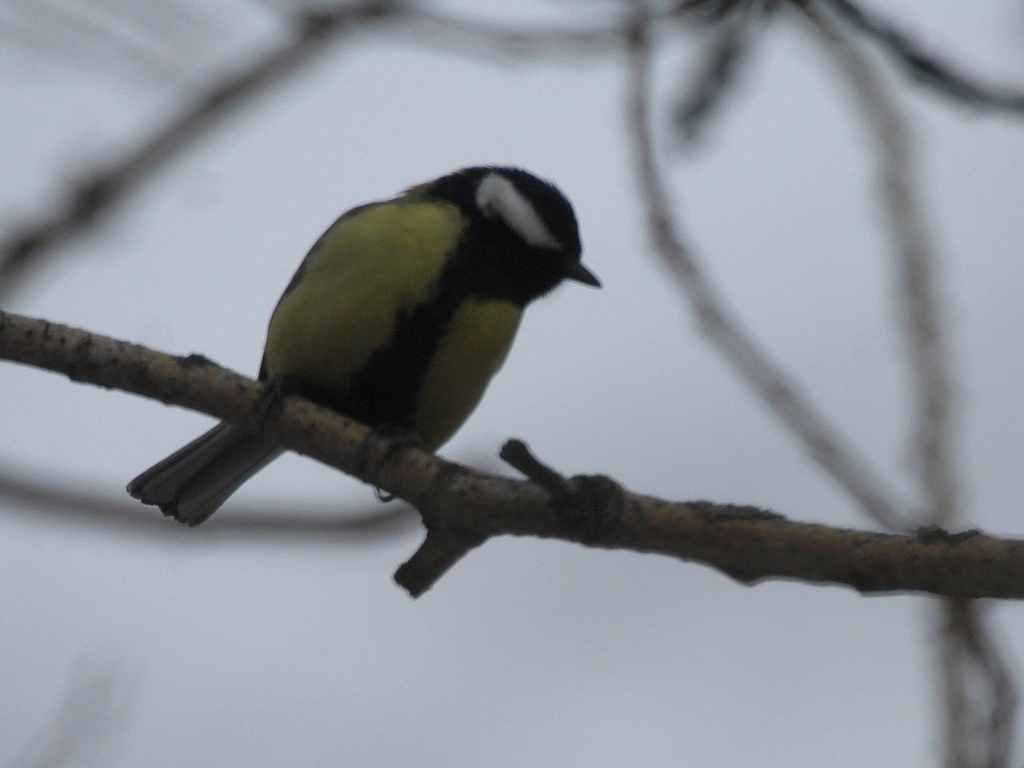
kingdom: Animalia
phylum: Chordata
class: Aves
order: Passeriformes
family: Paridae
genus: Parus
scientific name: Parus major
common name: Great tit
